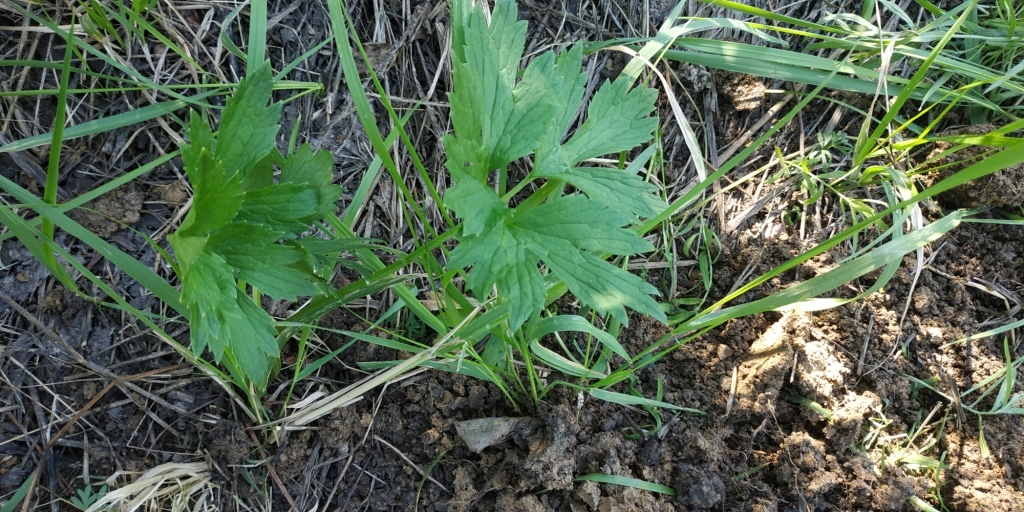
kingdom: Plantae
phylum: Tracheophyta
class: Magnoliopsida
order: Ranunculales
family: Ranunculaceae
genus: Ranunculus
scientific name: Ranunculus repens
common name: Creeping buttercup
